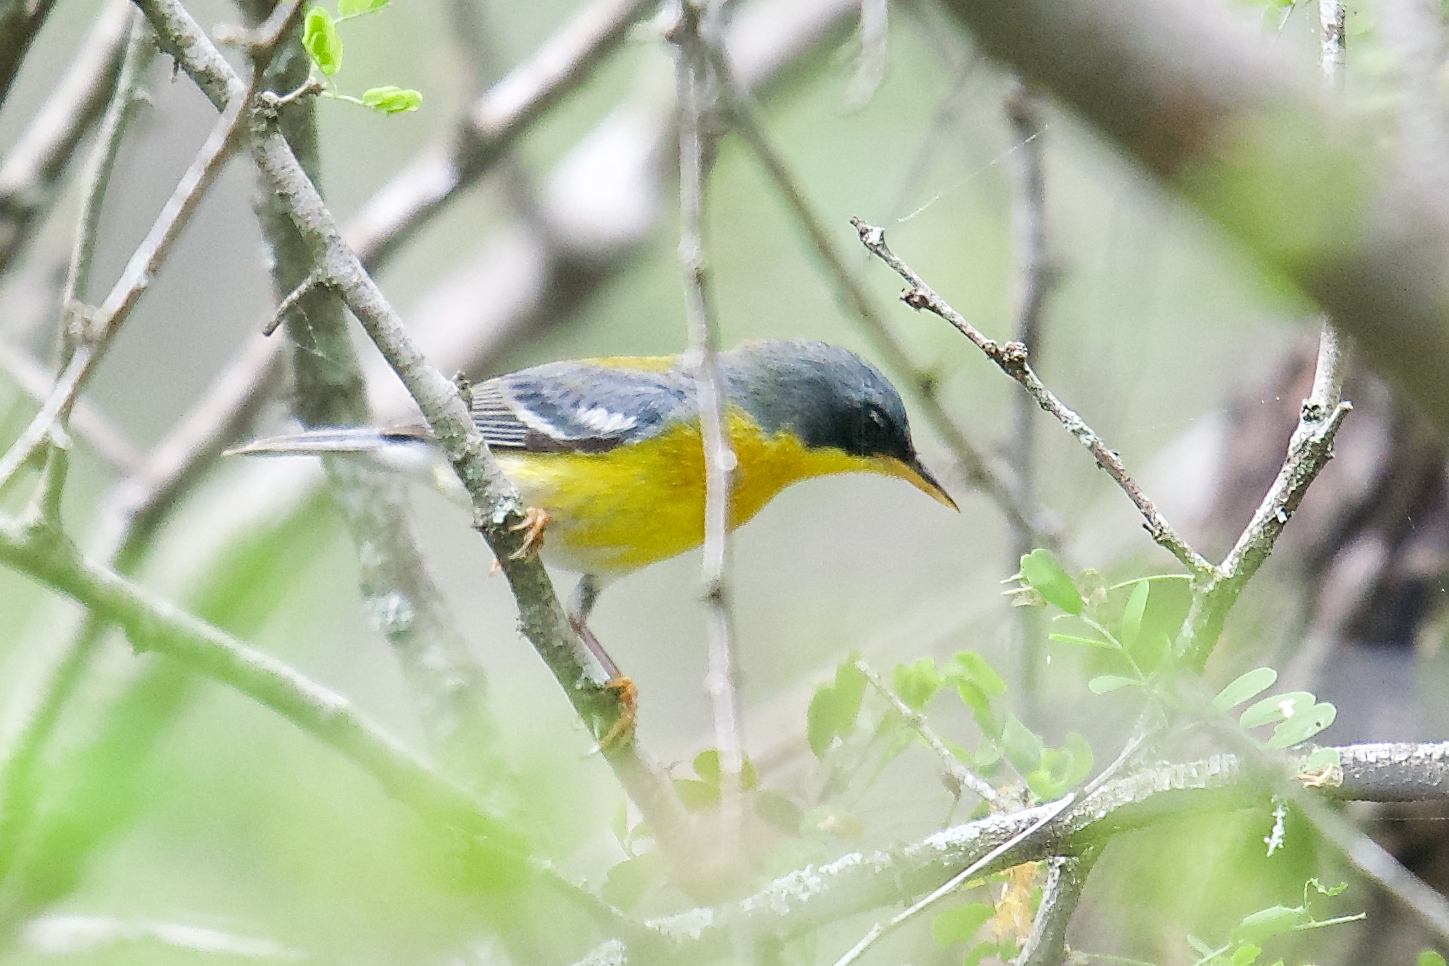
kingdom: Animalia
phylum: Chordata
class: Aves
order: Passeriformes
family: Parulidae
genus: Setophaga
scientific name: Setophaga pitiayumi
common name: Tropical parula
